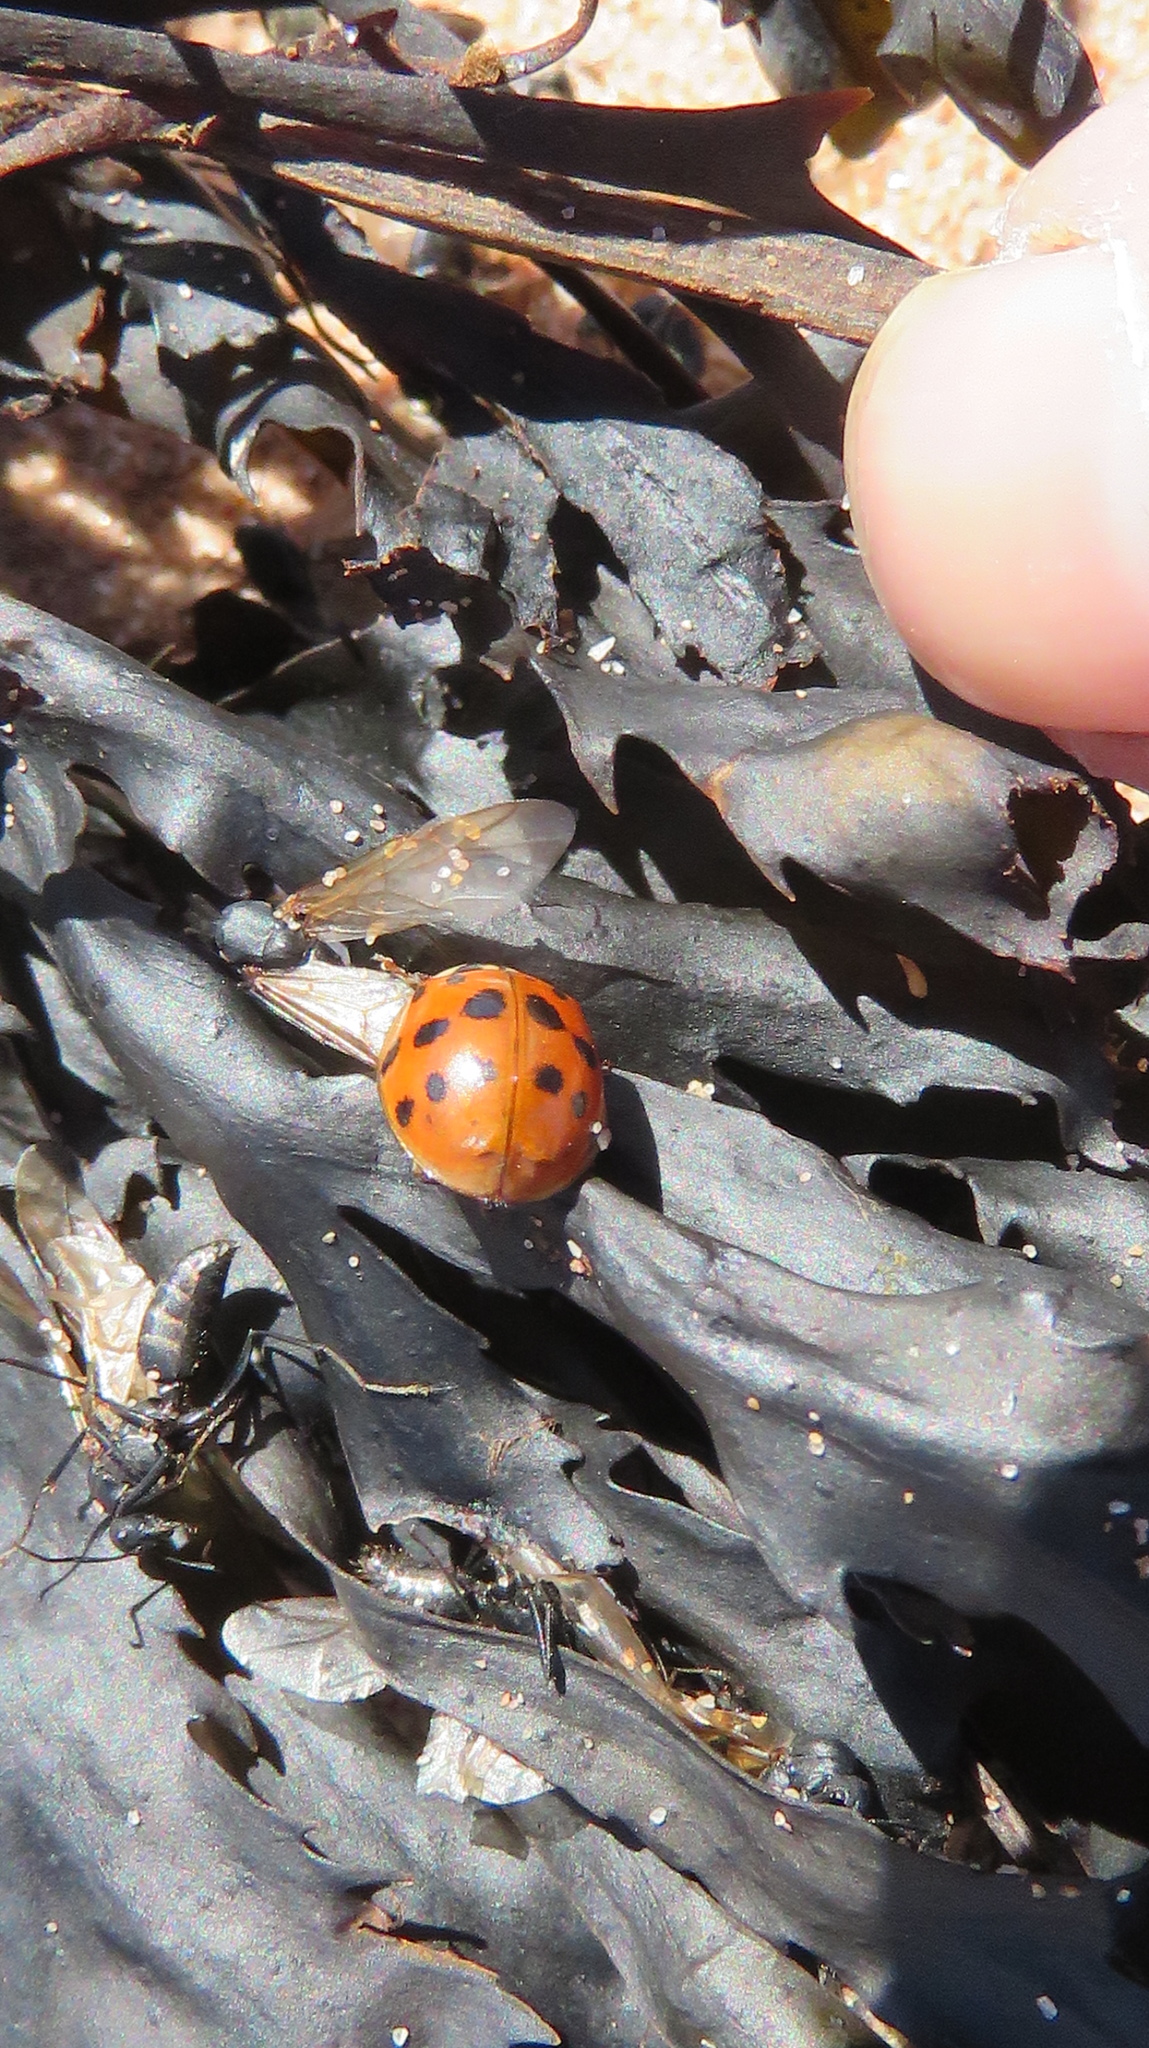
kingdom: Animalia
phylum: Arthropoda
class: Insecta
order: Coleoptera
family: Coccinellidae
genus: Harmonia
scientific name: Harmonia axyridis
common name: Harlequin ladybird
